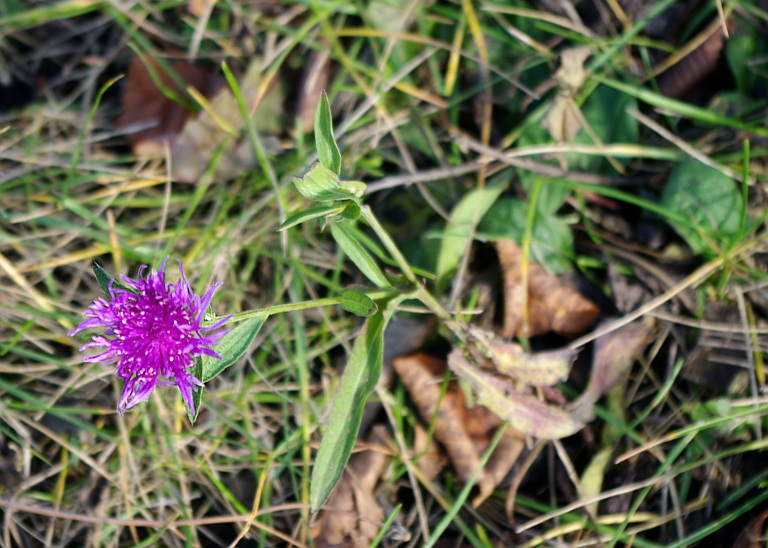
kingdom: Plantae
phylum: Tracheophyta
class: Magnoliopsida
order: Asterales
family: Asteraceae
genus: Centaurea
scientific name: Centaurea jacea
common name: Brown knapweed
